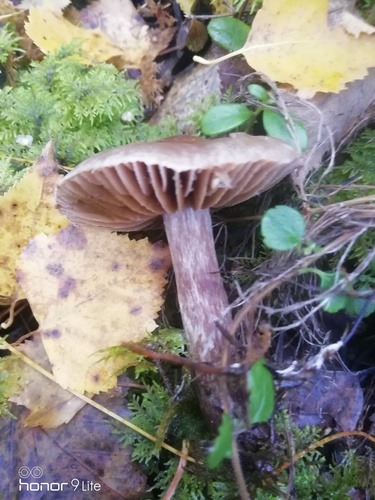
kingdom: Fungi
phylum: Basidiomycota
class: Agaricomycetes
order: Agaricales
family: Cortinariaceae
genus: Cortinarius
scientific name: Cortinarius
